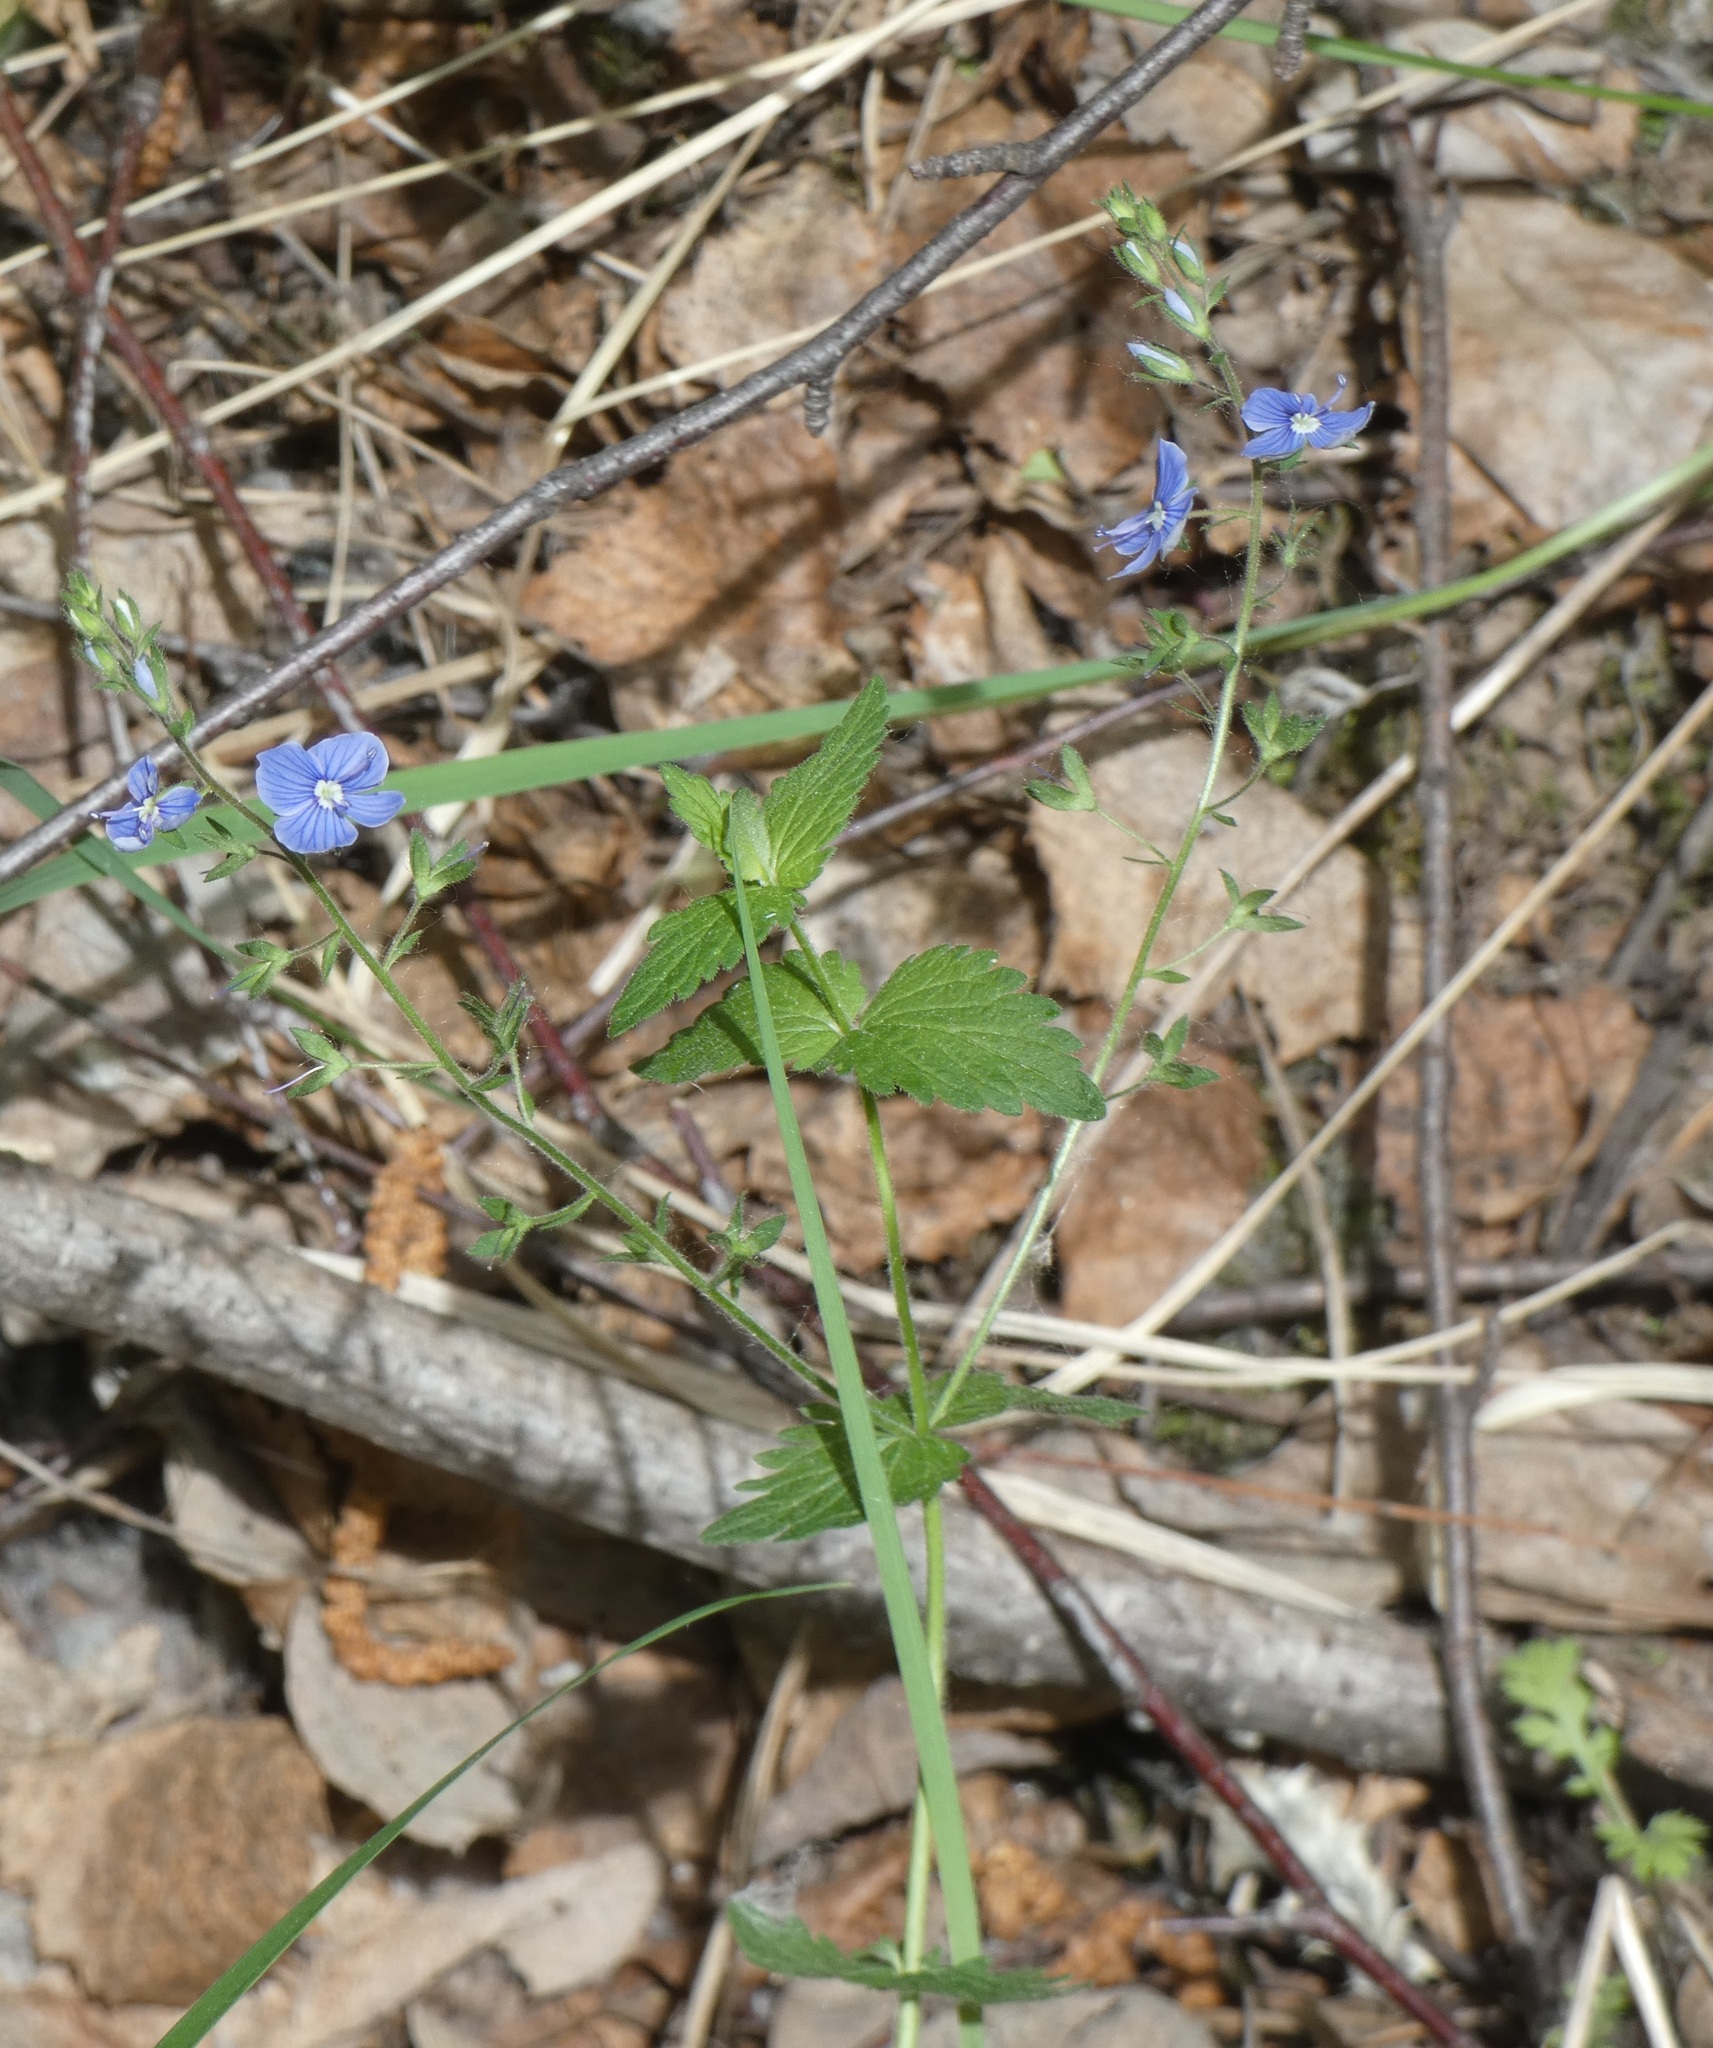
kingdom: Plantae
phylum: Tracheophyta
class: Magnoliopsida
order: Lamiales
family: Plantaginaceae
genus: Veronica
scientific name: Veronica chamaedrys
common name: Germander speedwell
